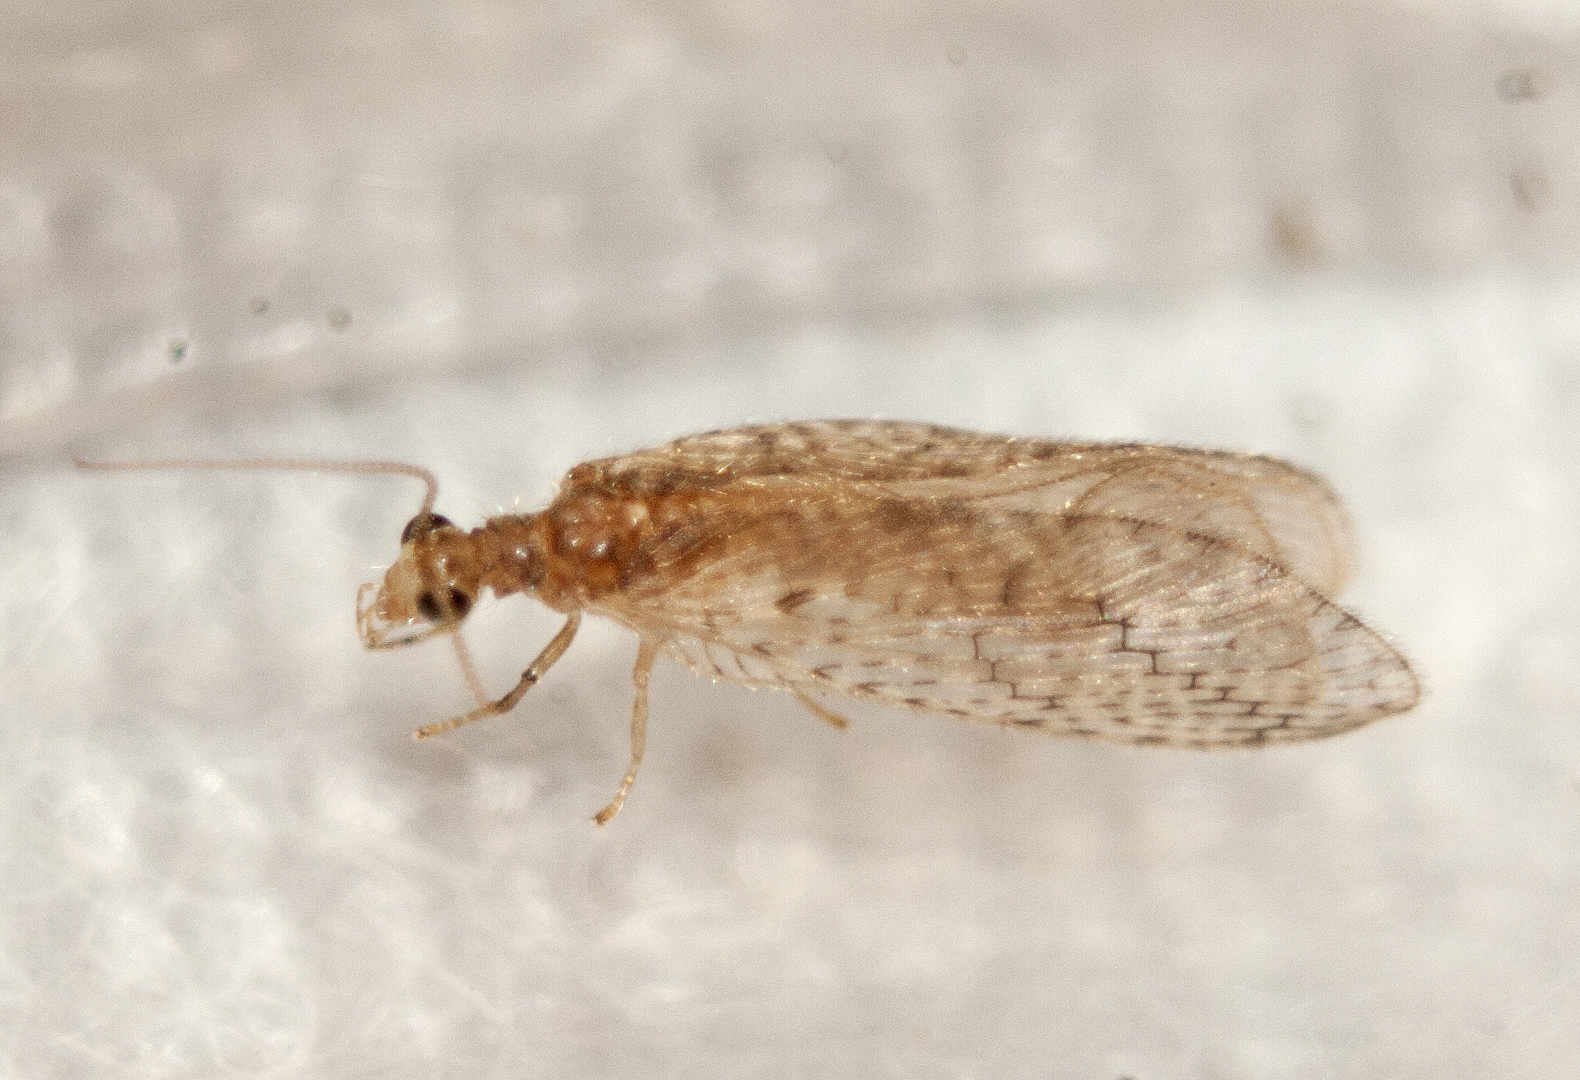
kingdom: Animalia
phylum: Arthropoda
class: Insecta
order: Neuroptera
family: Hemerobiidae
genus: Micromus
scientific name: Micromus tasmaniae
